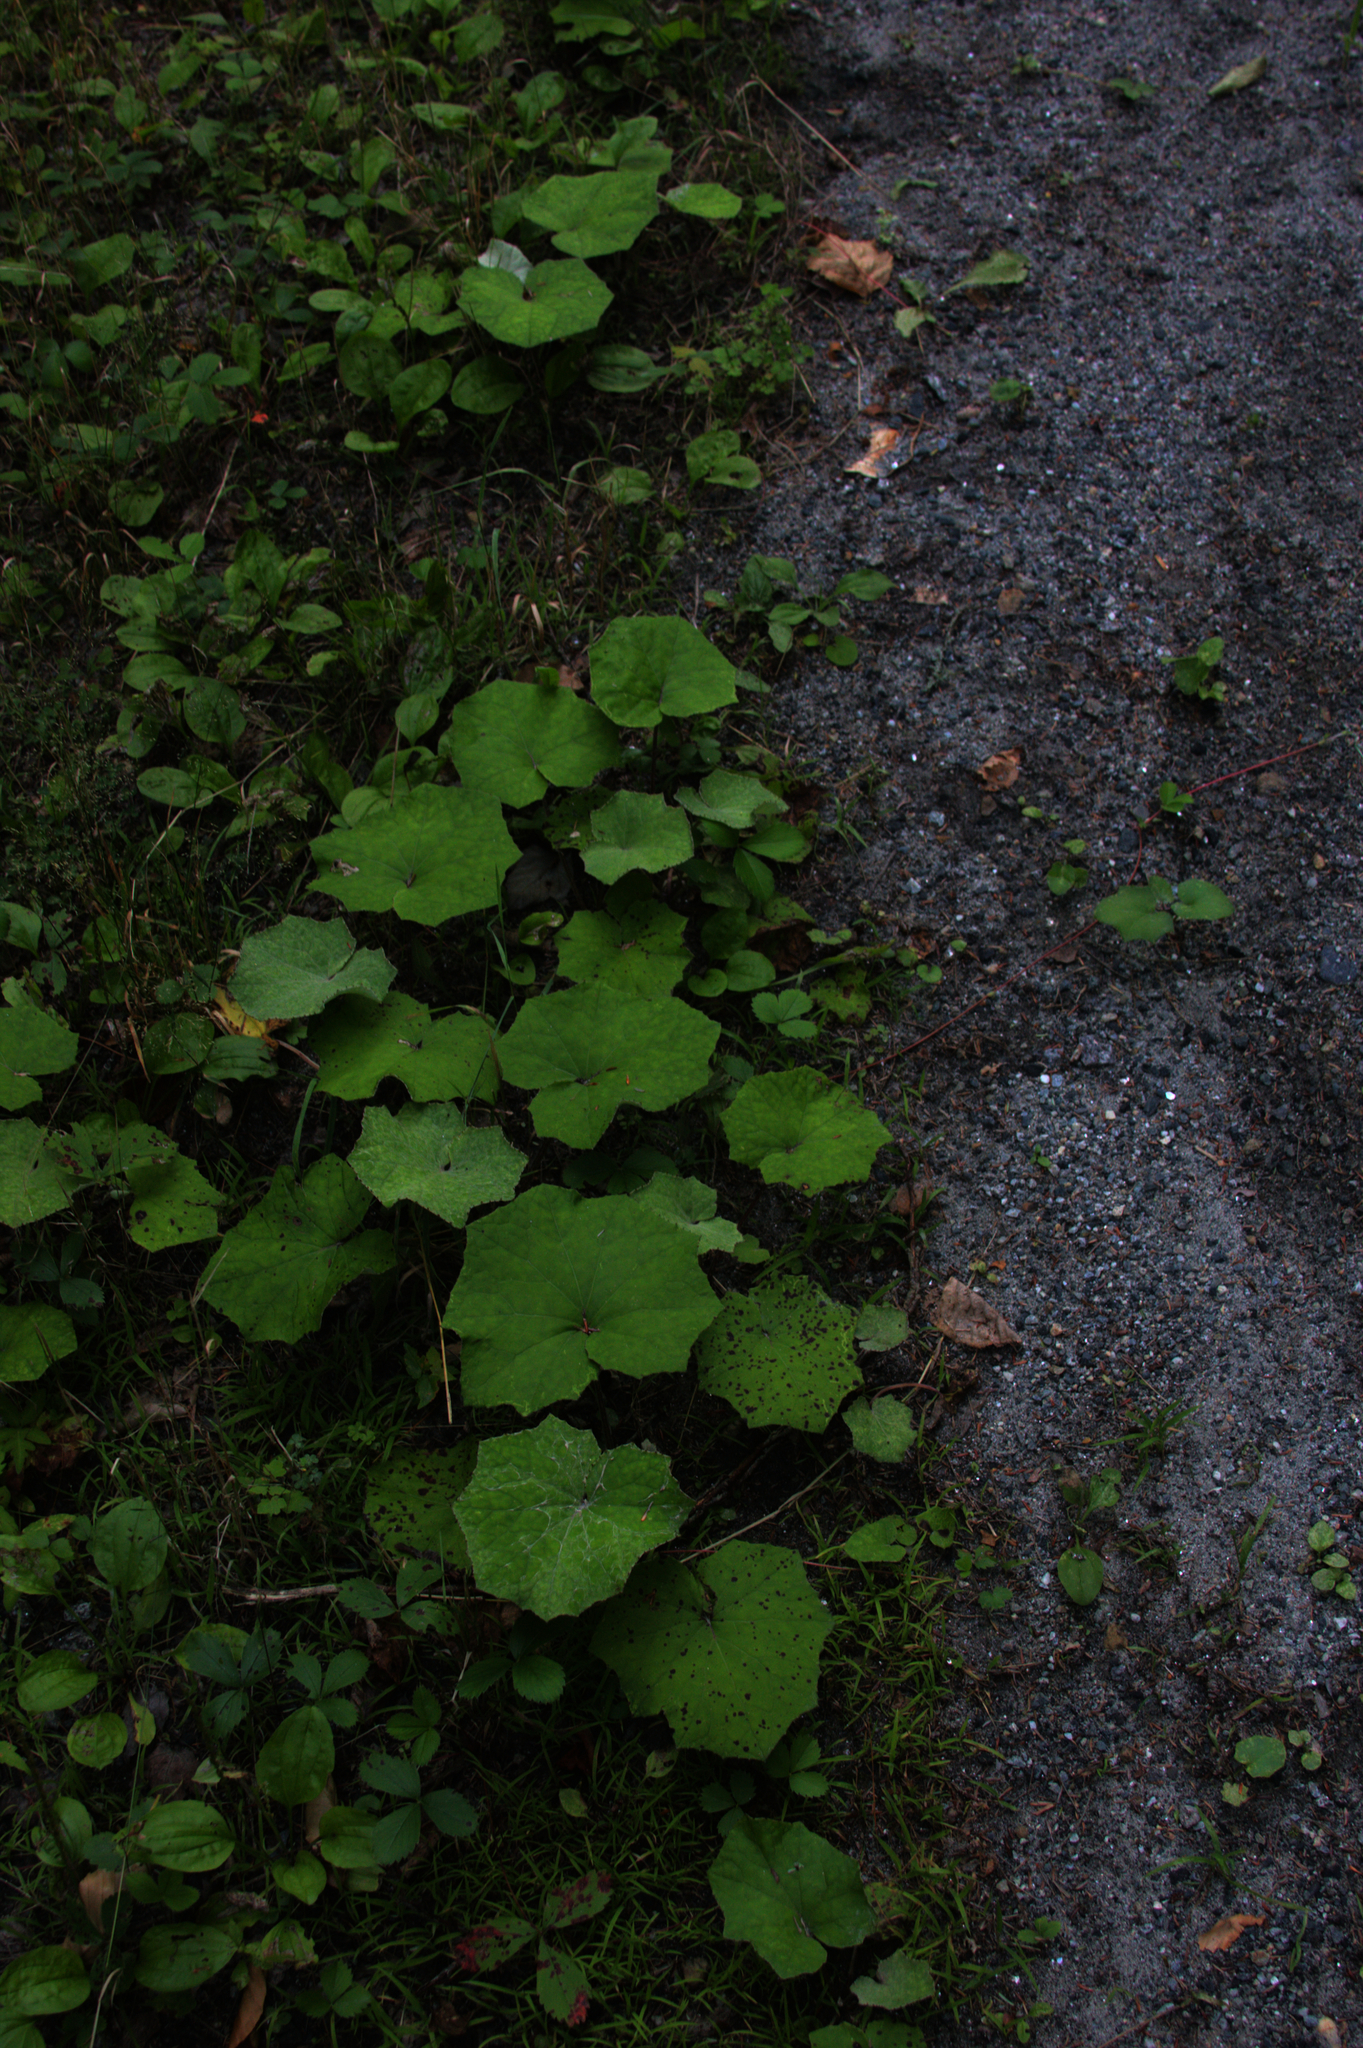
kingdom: Plantae
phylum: Tracheophyta
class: Magnoliopsida
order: Asterales
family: Asteraceae
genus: Tussilago
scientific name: Tussilago farfara
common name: Coltsfoot
